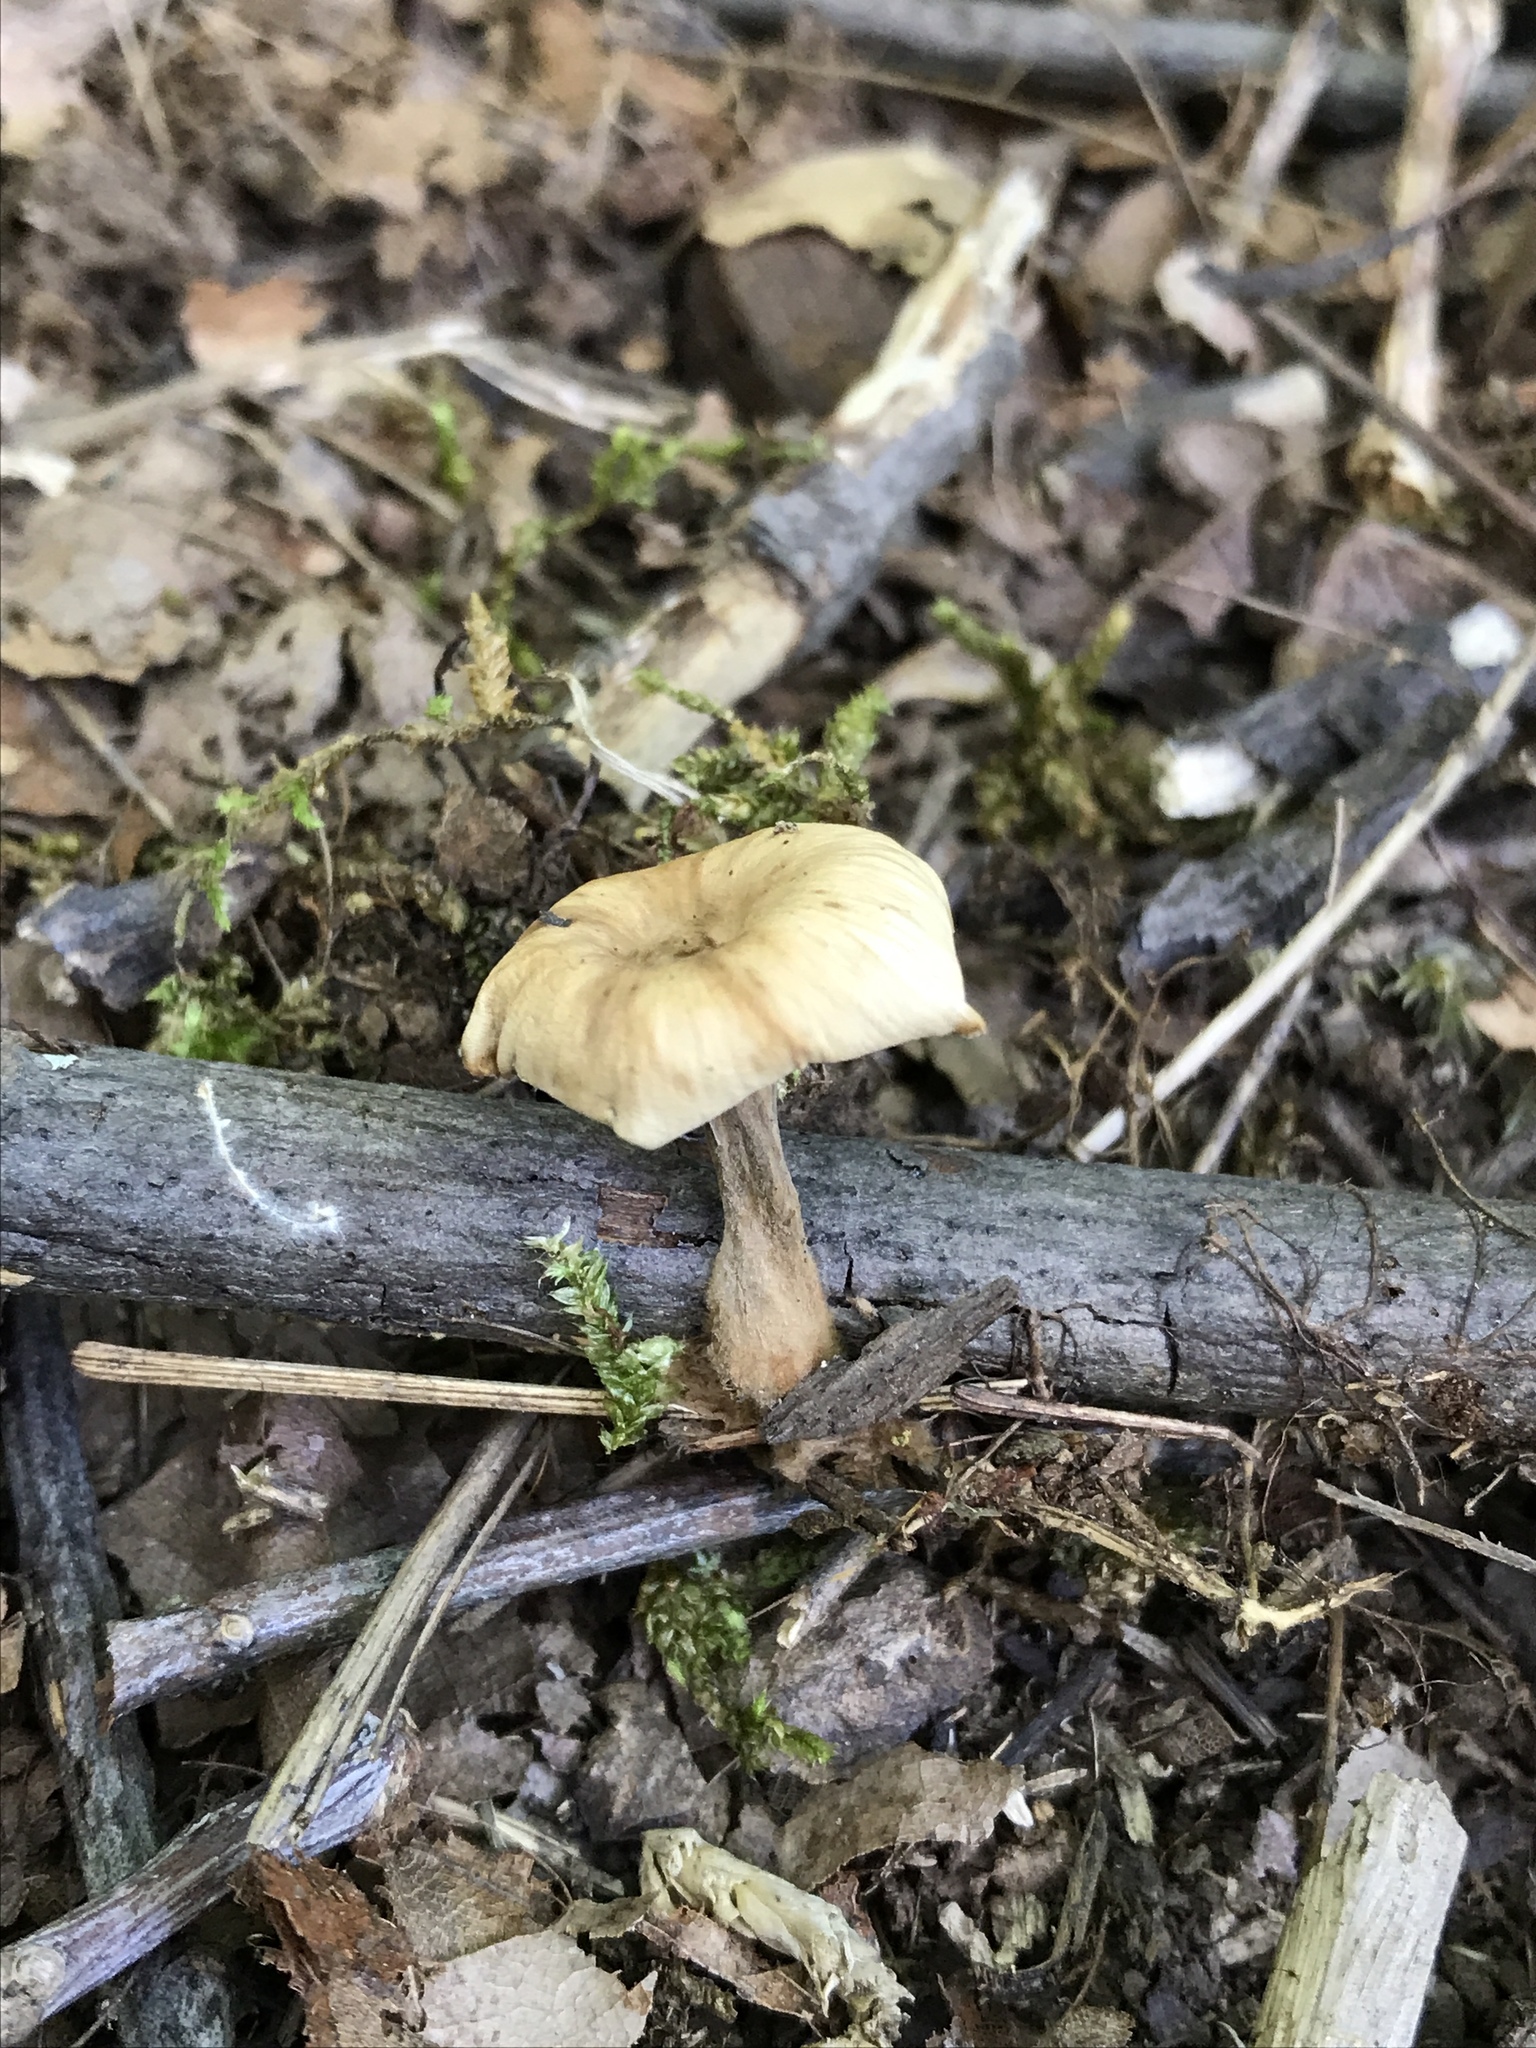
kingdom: Fungi
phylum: Basidiomycota
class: Agaricomycetes
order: Russulales
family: Auriscalpiaceae
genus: Lentinellus
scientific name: Lentinellus subaustralis
